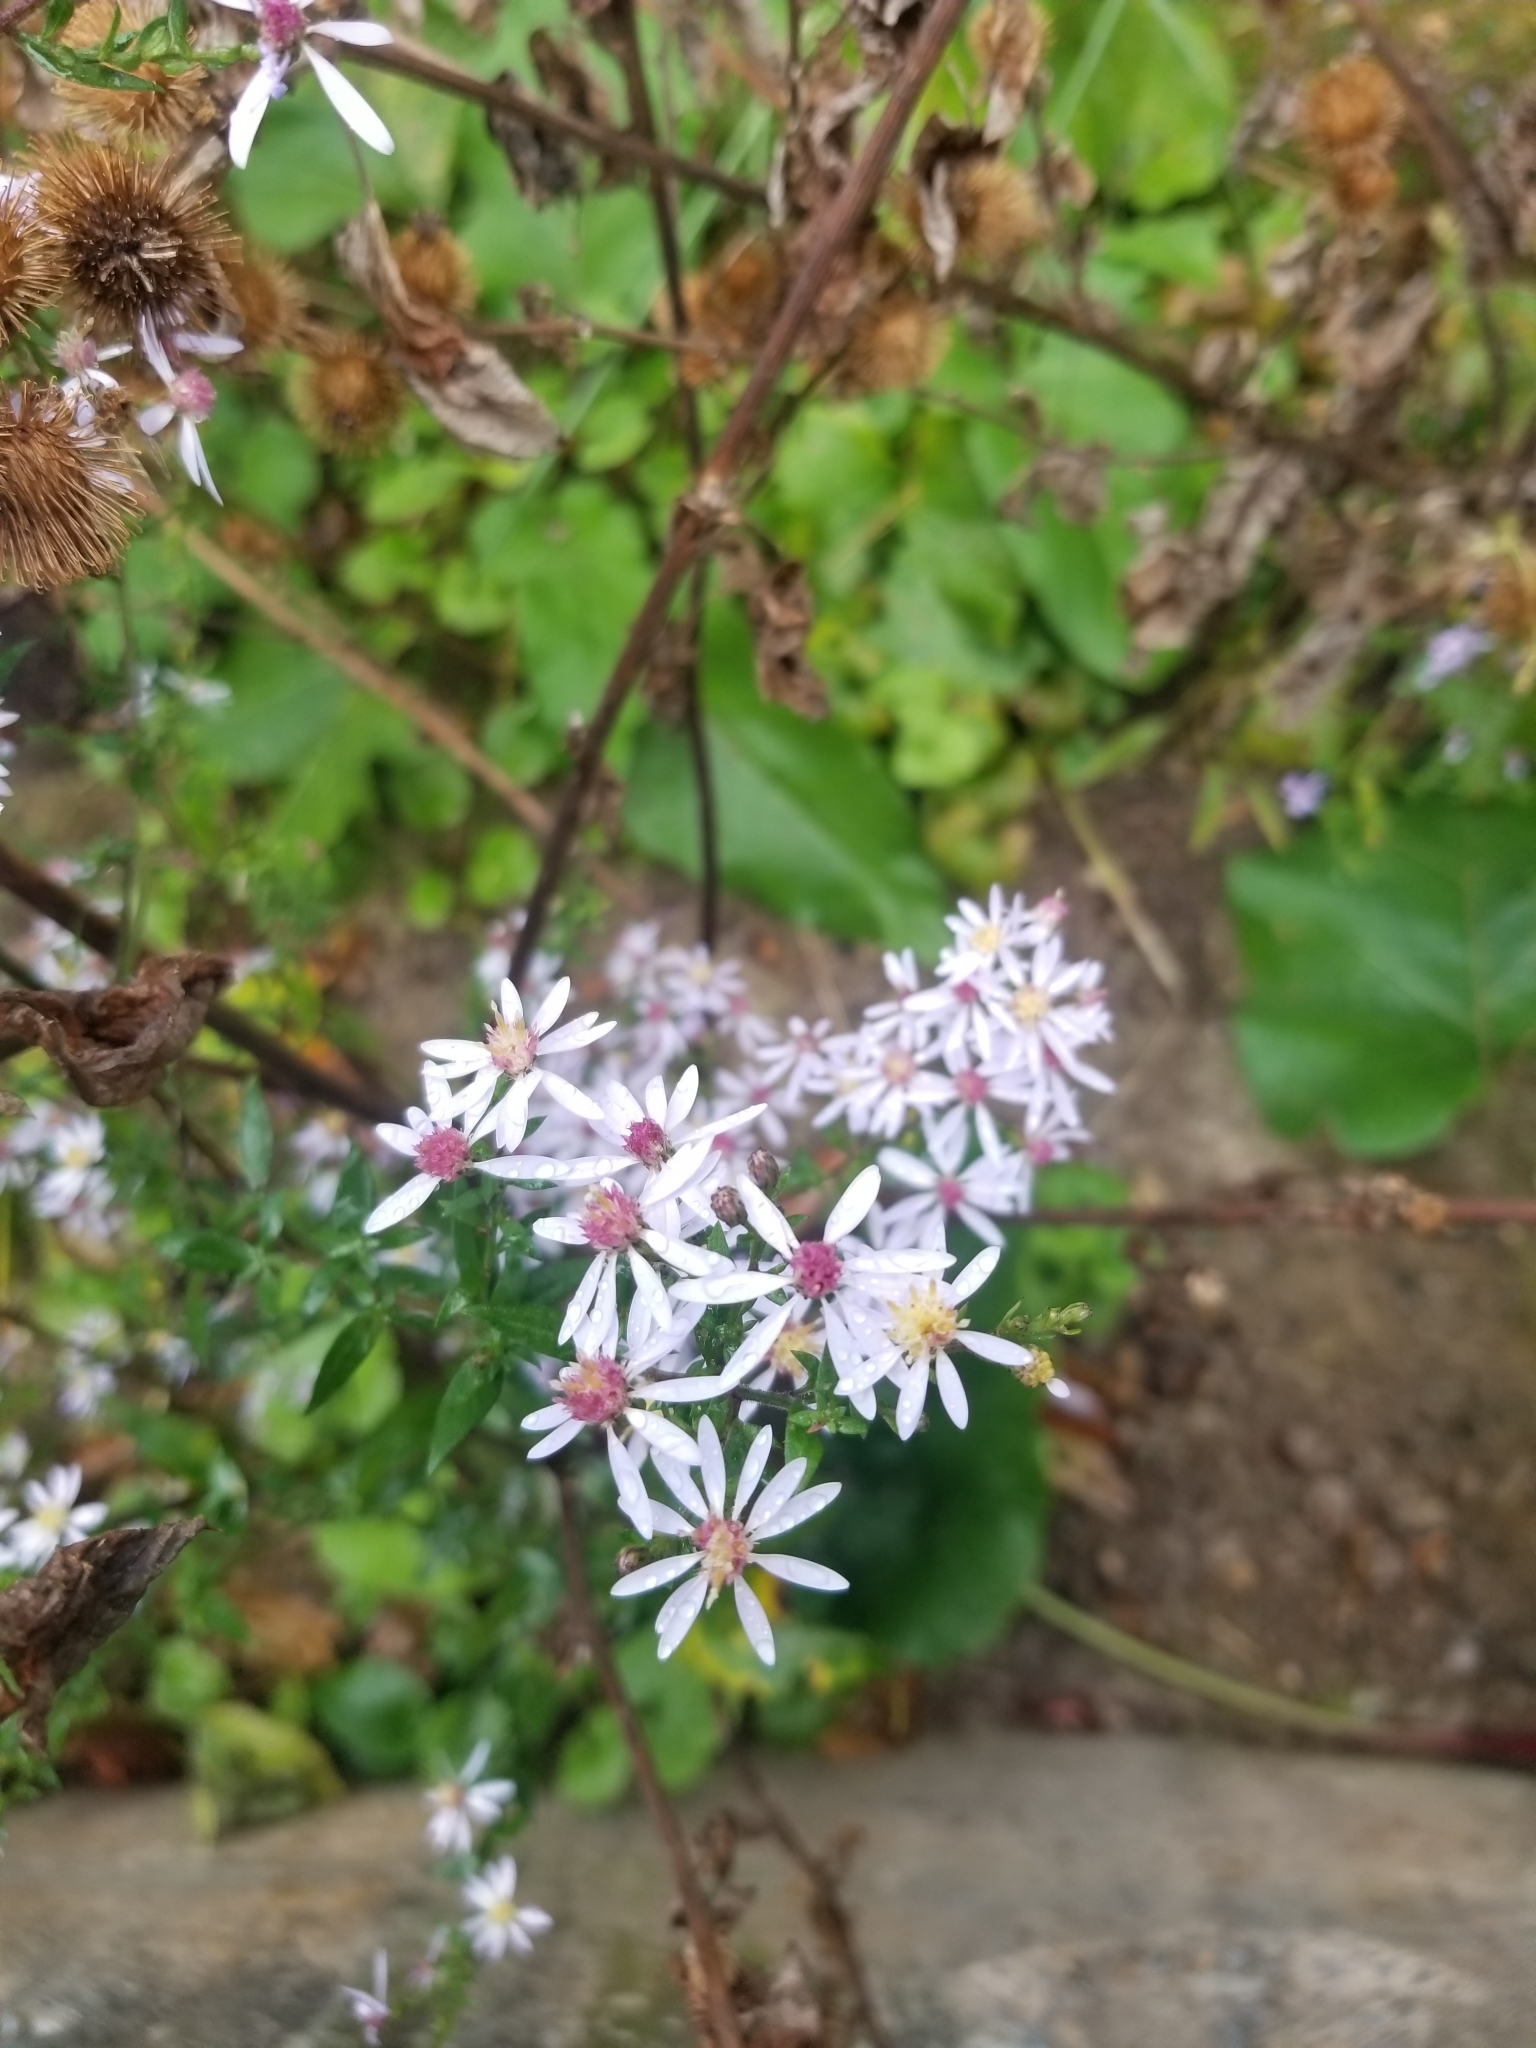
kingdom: Plantae
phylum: Tracheophyta
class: Magnoliopsida
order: Asterales
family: Asteraceae
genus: Symphyotrichum
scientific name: Symphyotrichum cordifolium
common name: Beeweed
